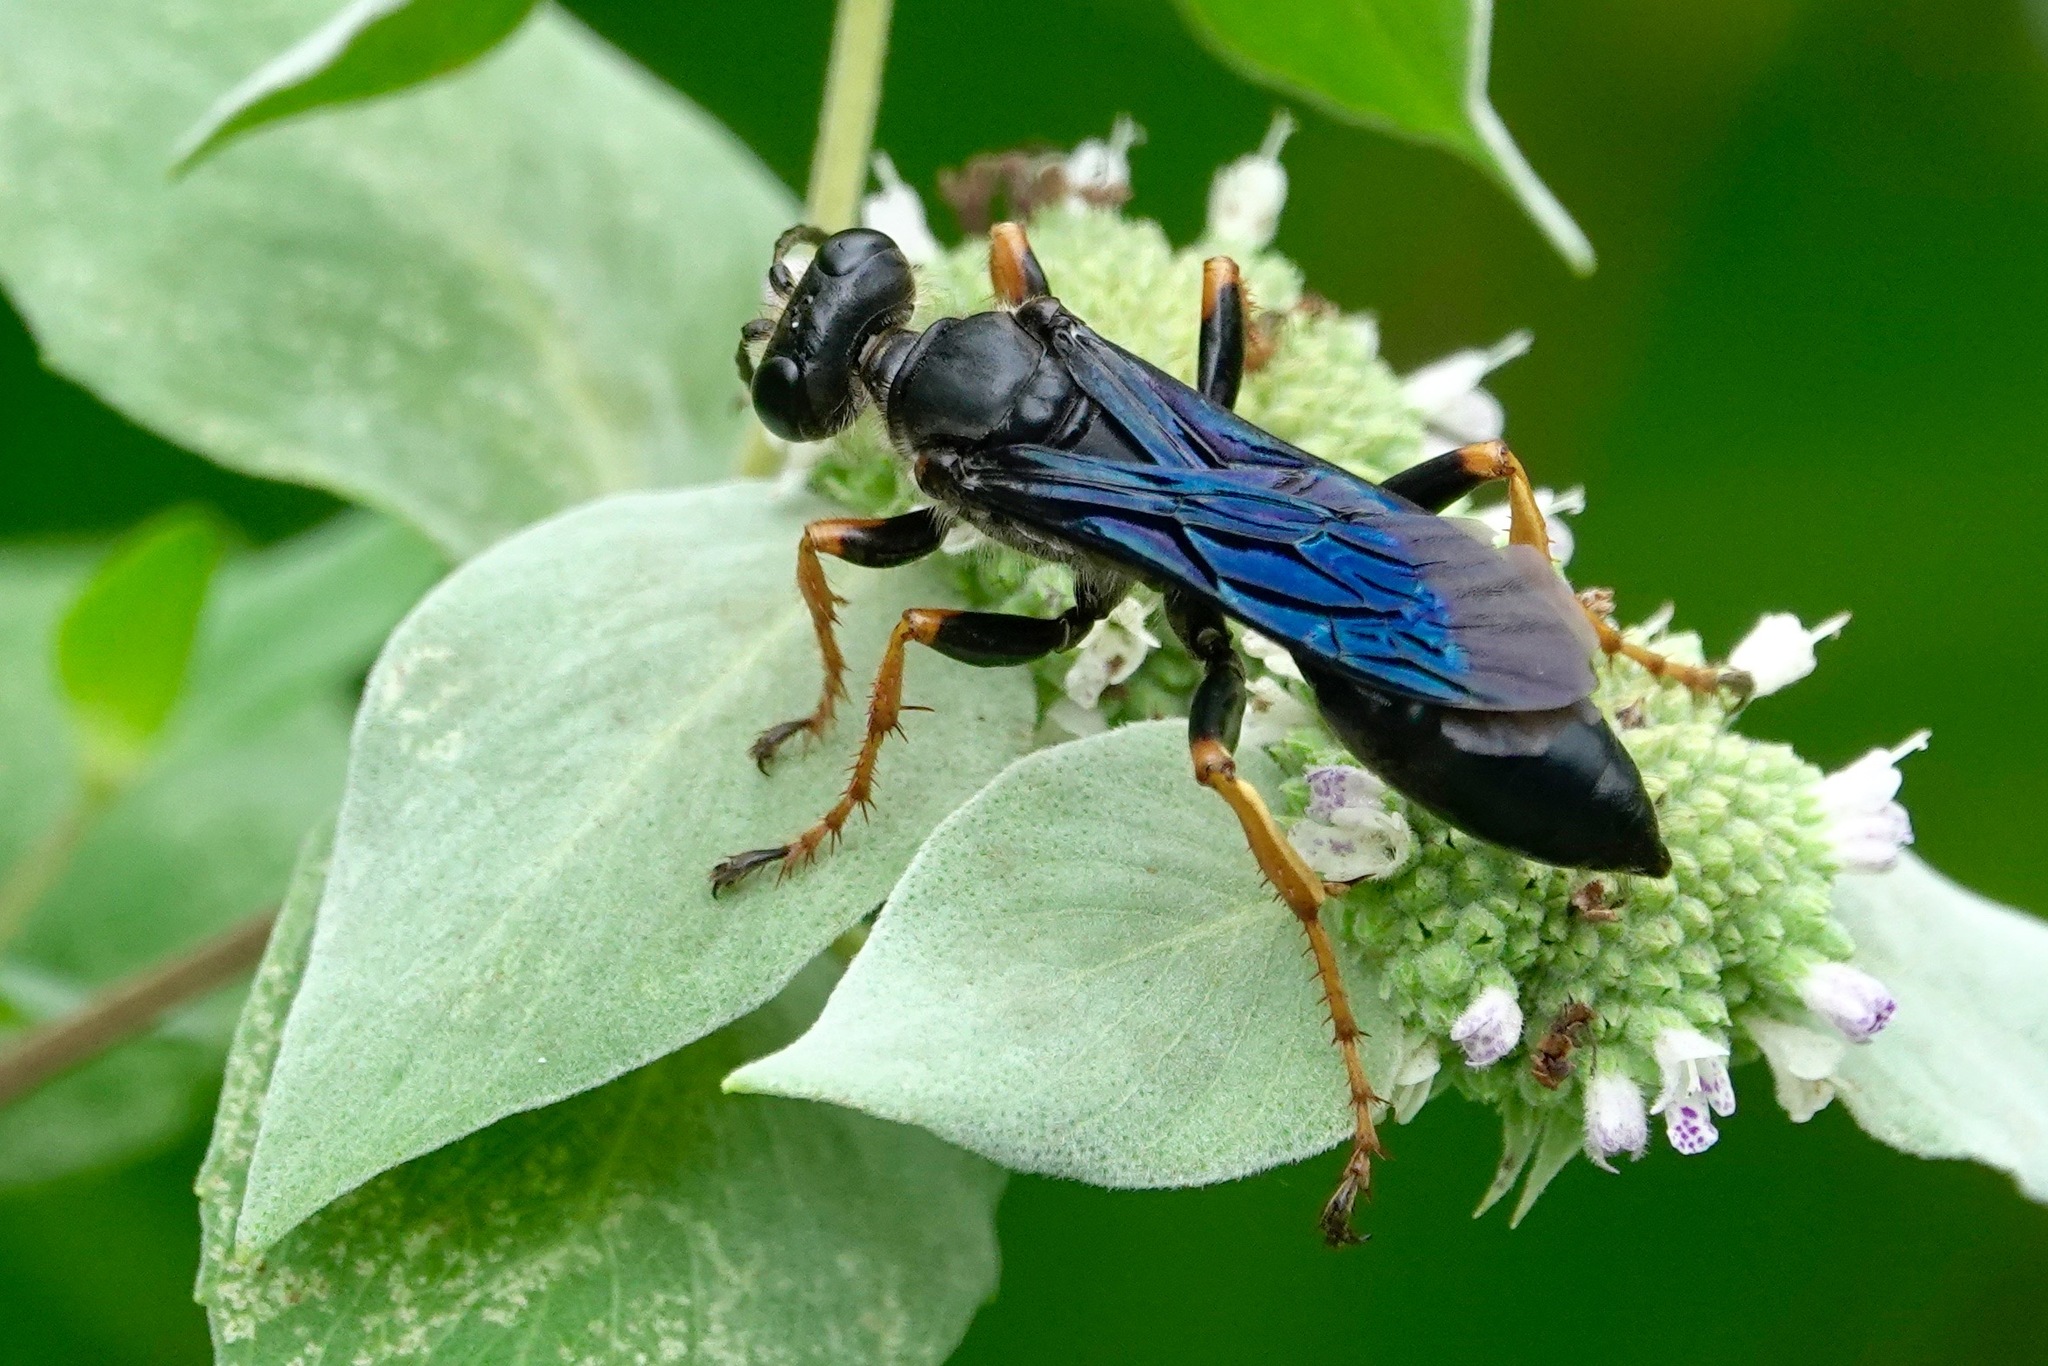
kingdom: Animalia
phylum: Arthropoda
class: Insecta
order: Hymenoptera
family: Sphecidae
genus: Sphex
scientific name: Sphex nudus
